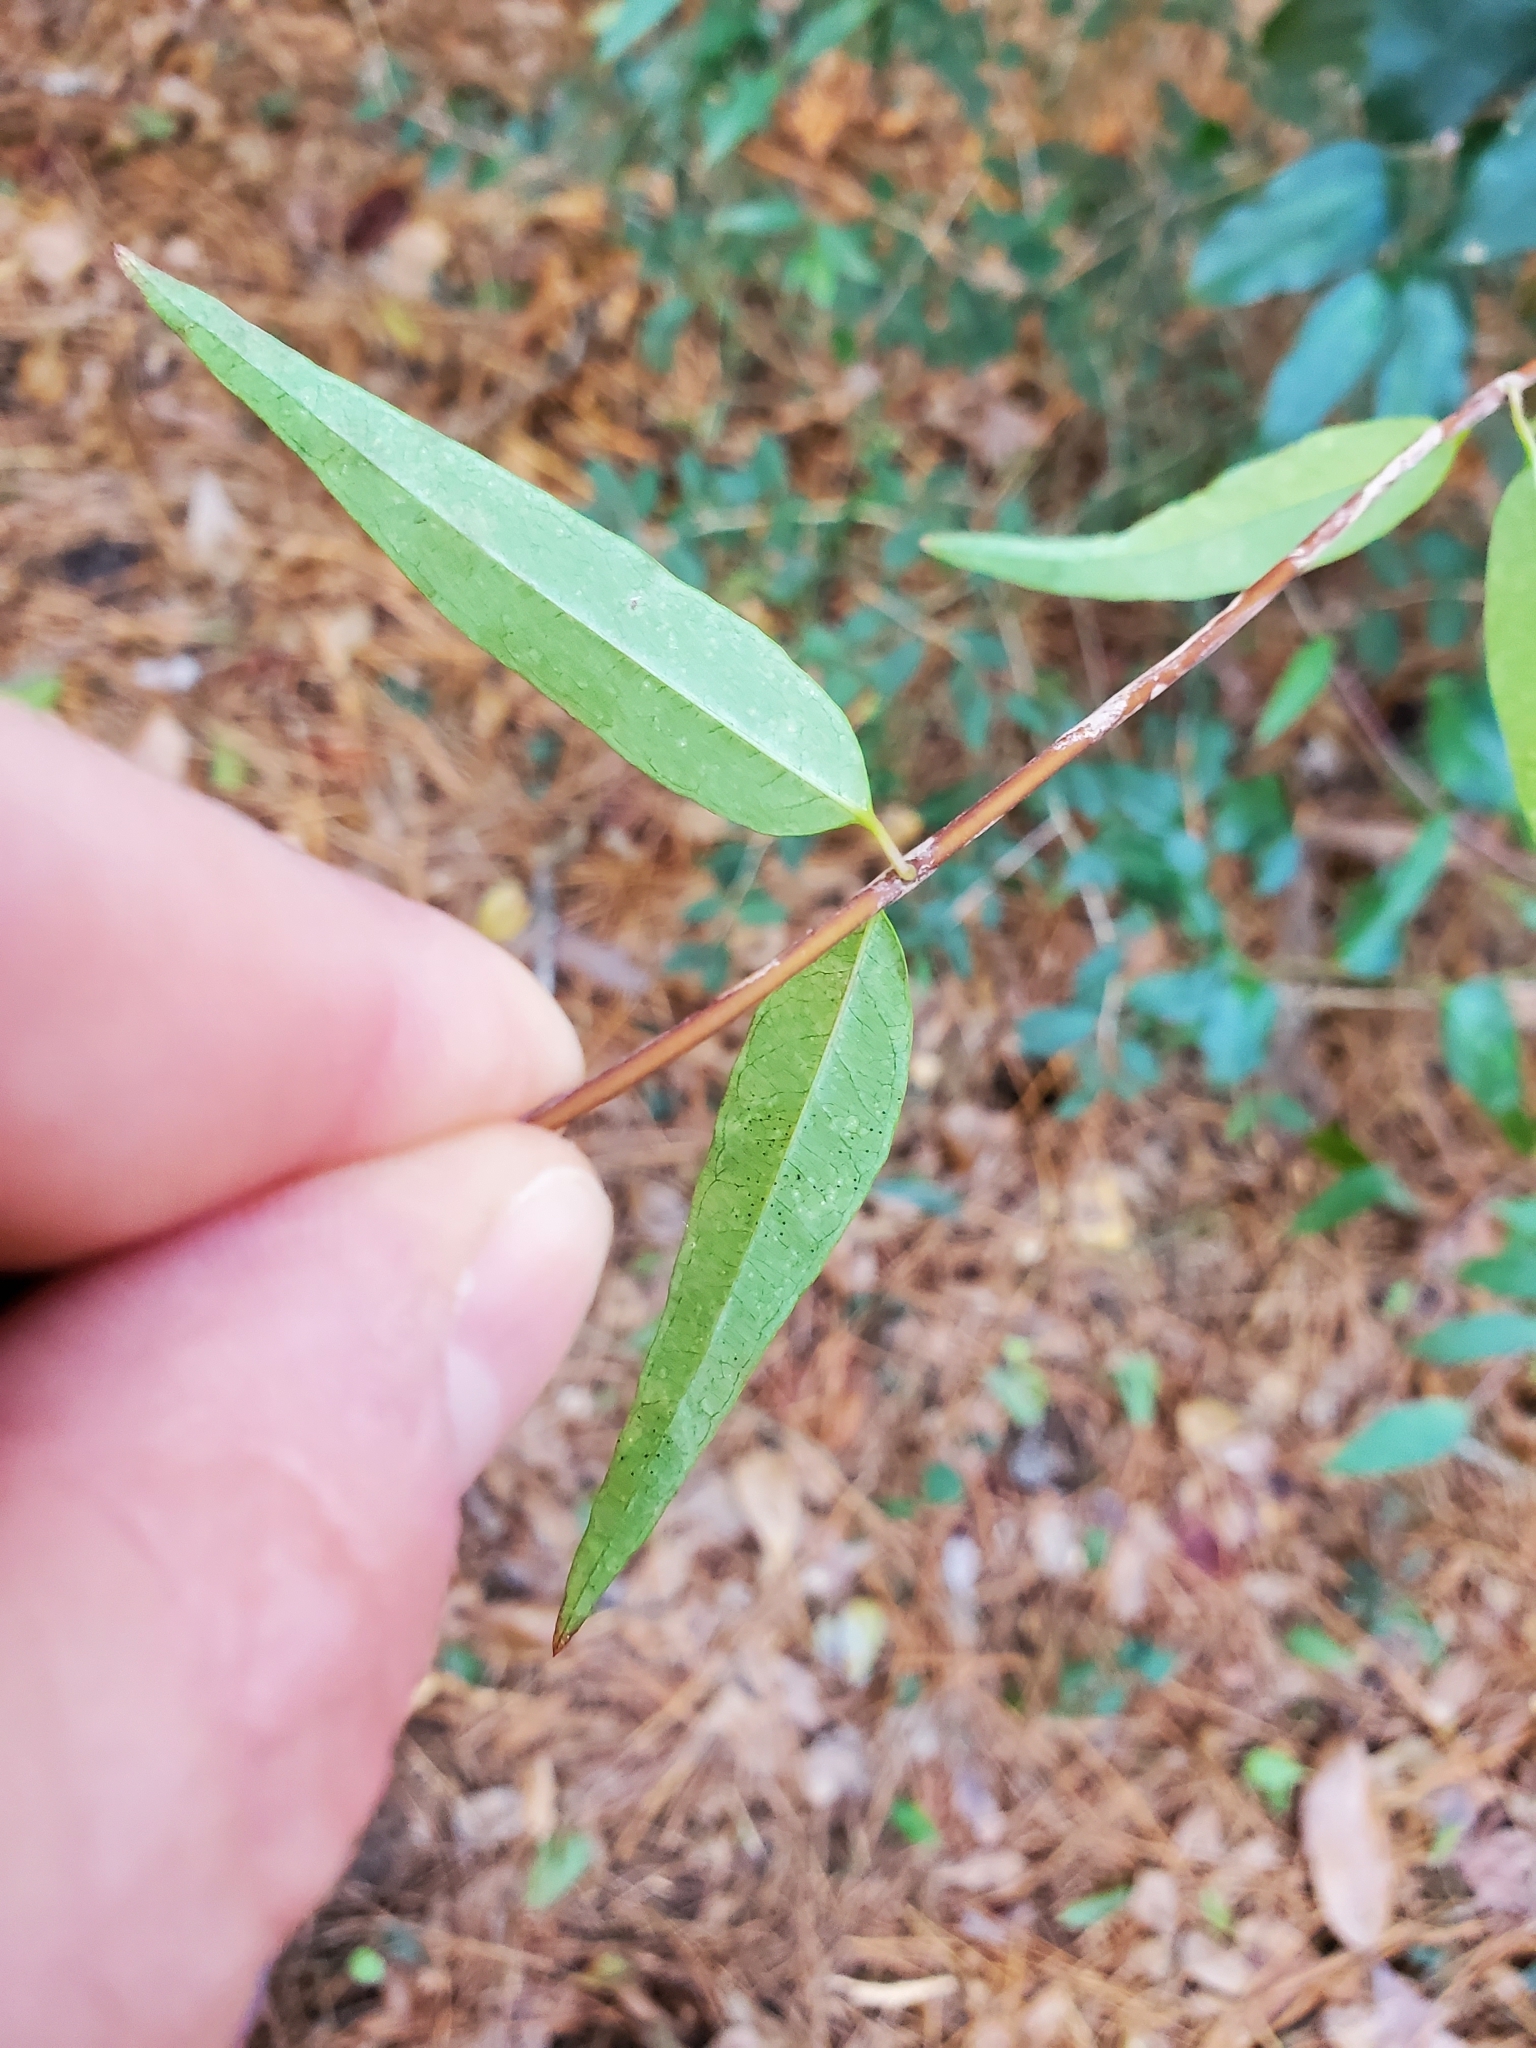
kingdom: Plantae
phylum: Tracheophyta
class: Magnoliopsida
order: Gentianales
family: Gelsemiaceae
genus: Gelsemium
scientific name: Gelsemium sempervirens
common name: Carolina-jasmine
